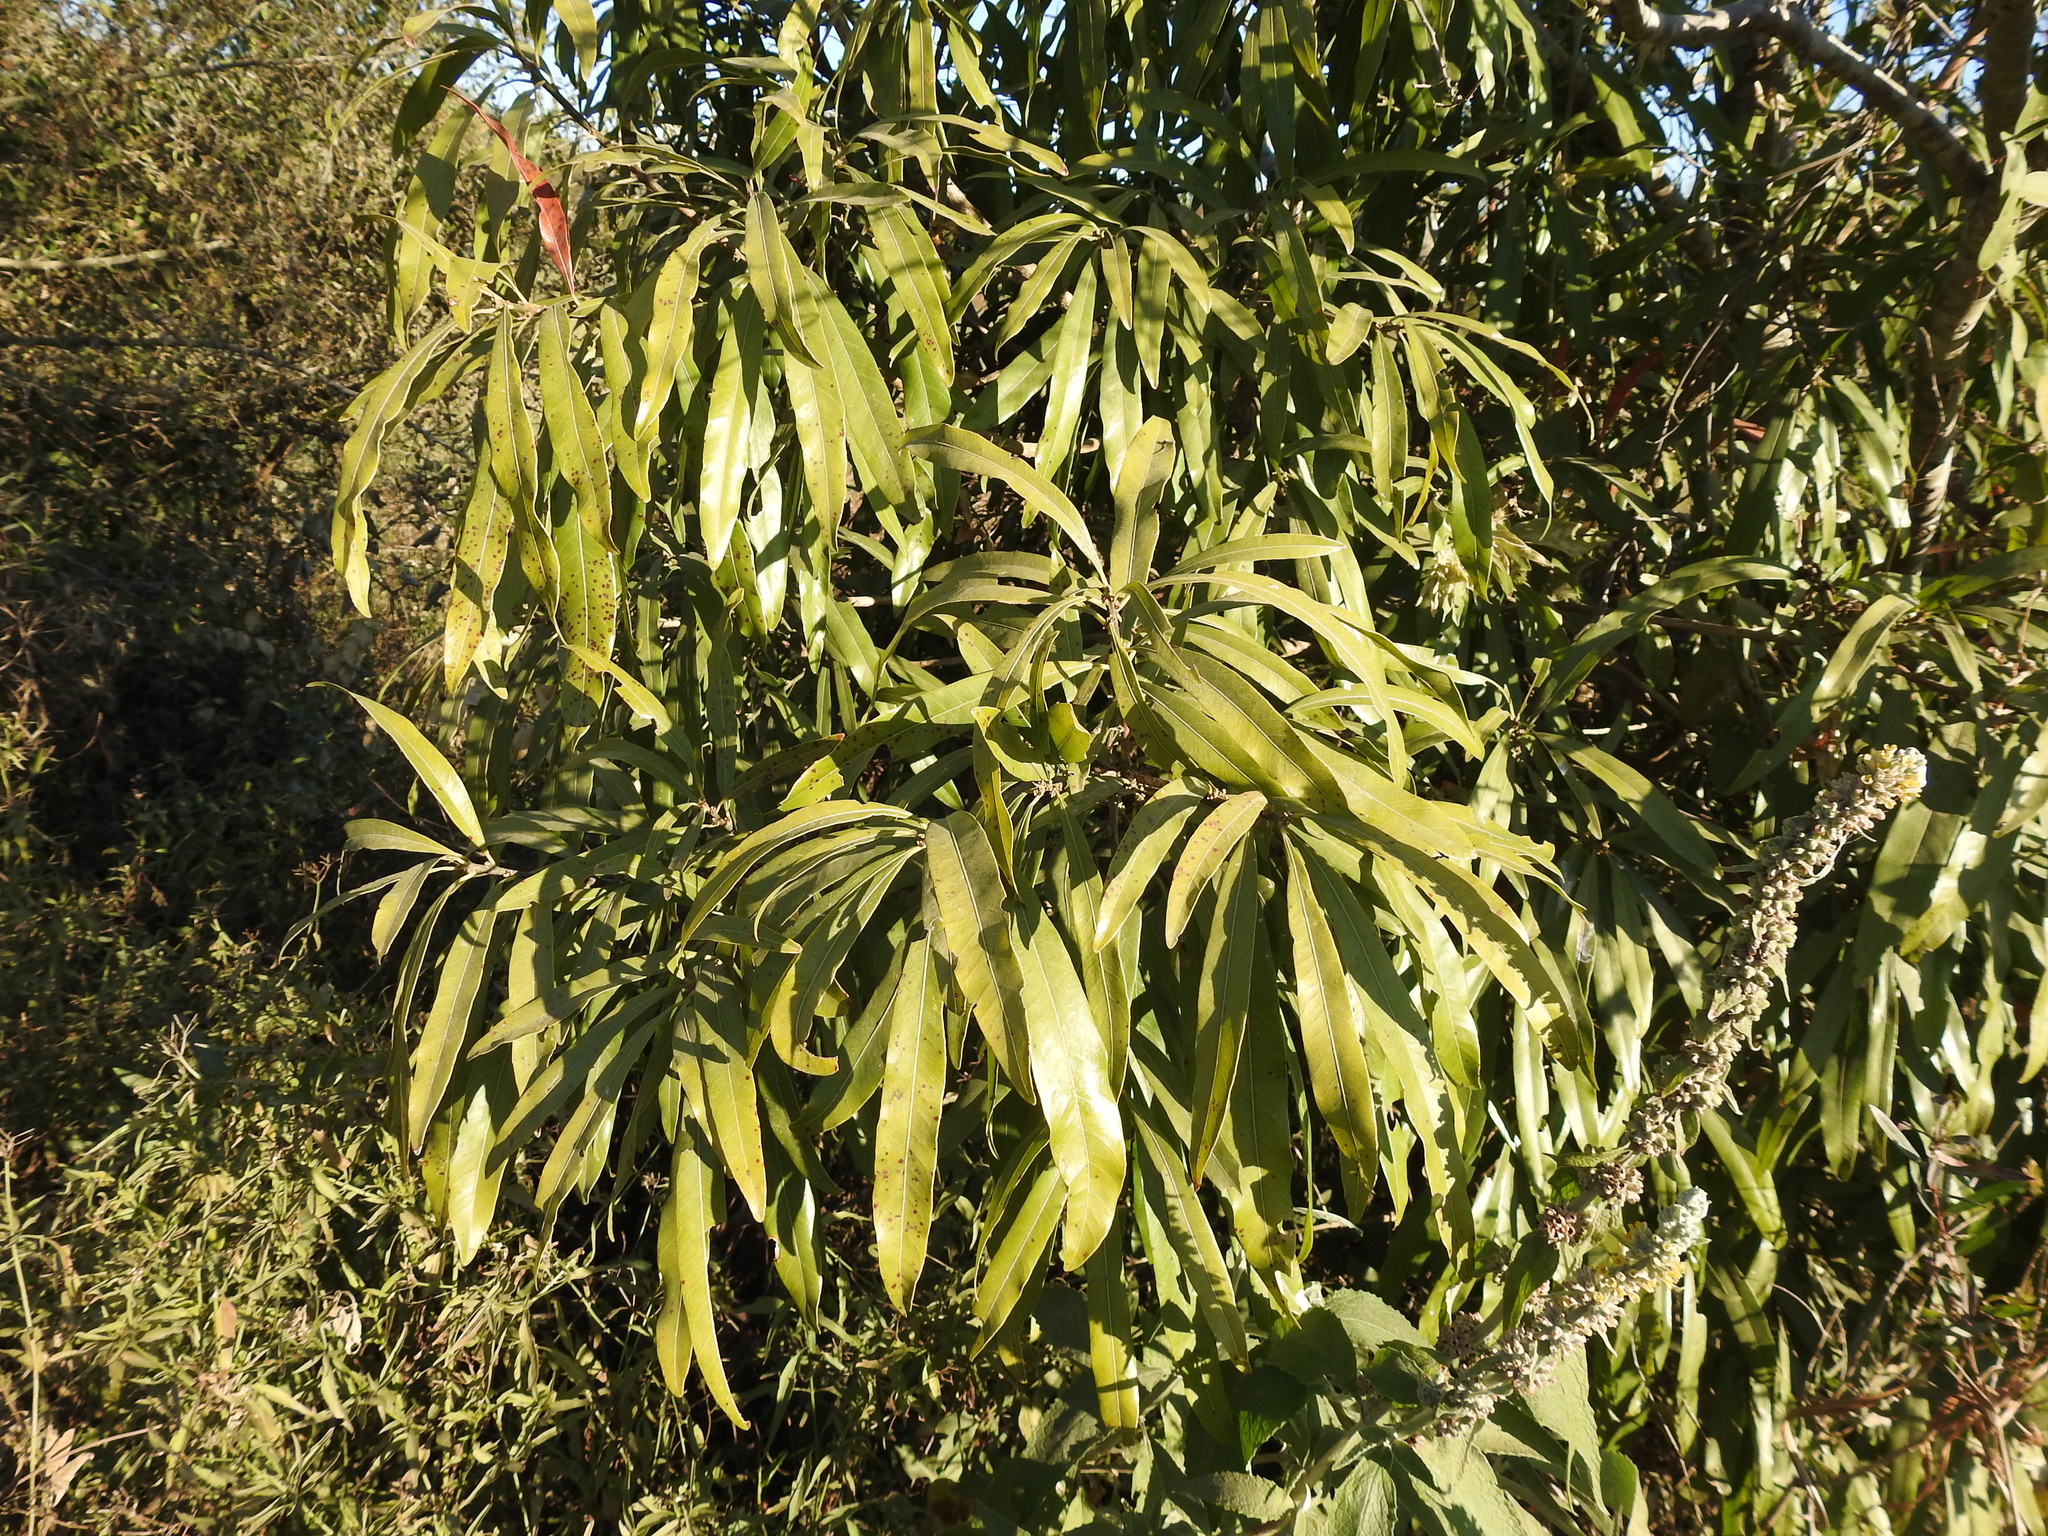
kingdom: Plantae
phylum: Tracheophyta
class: Magnoliopsida
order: Ericales
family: Sapotaceae
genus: Pouteria
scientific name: Pouteria gardneriana
